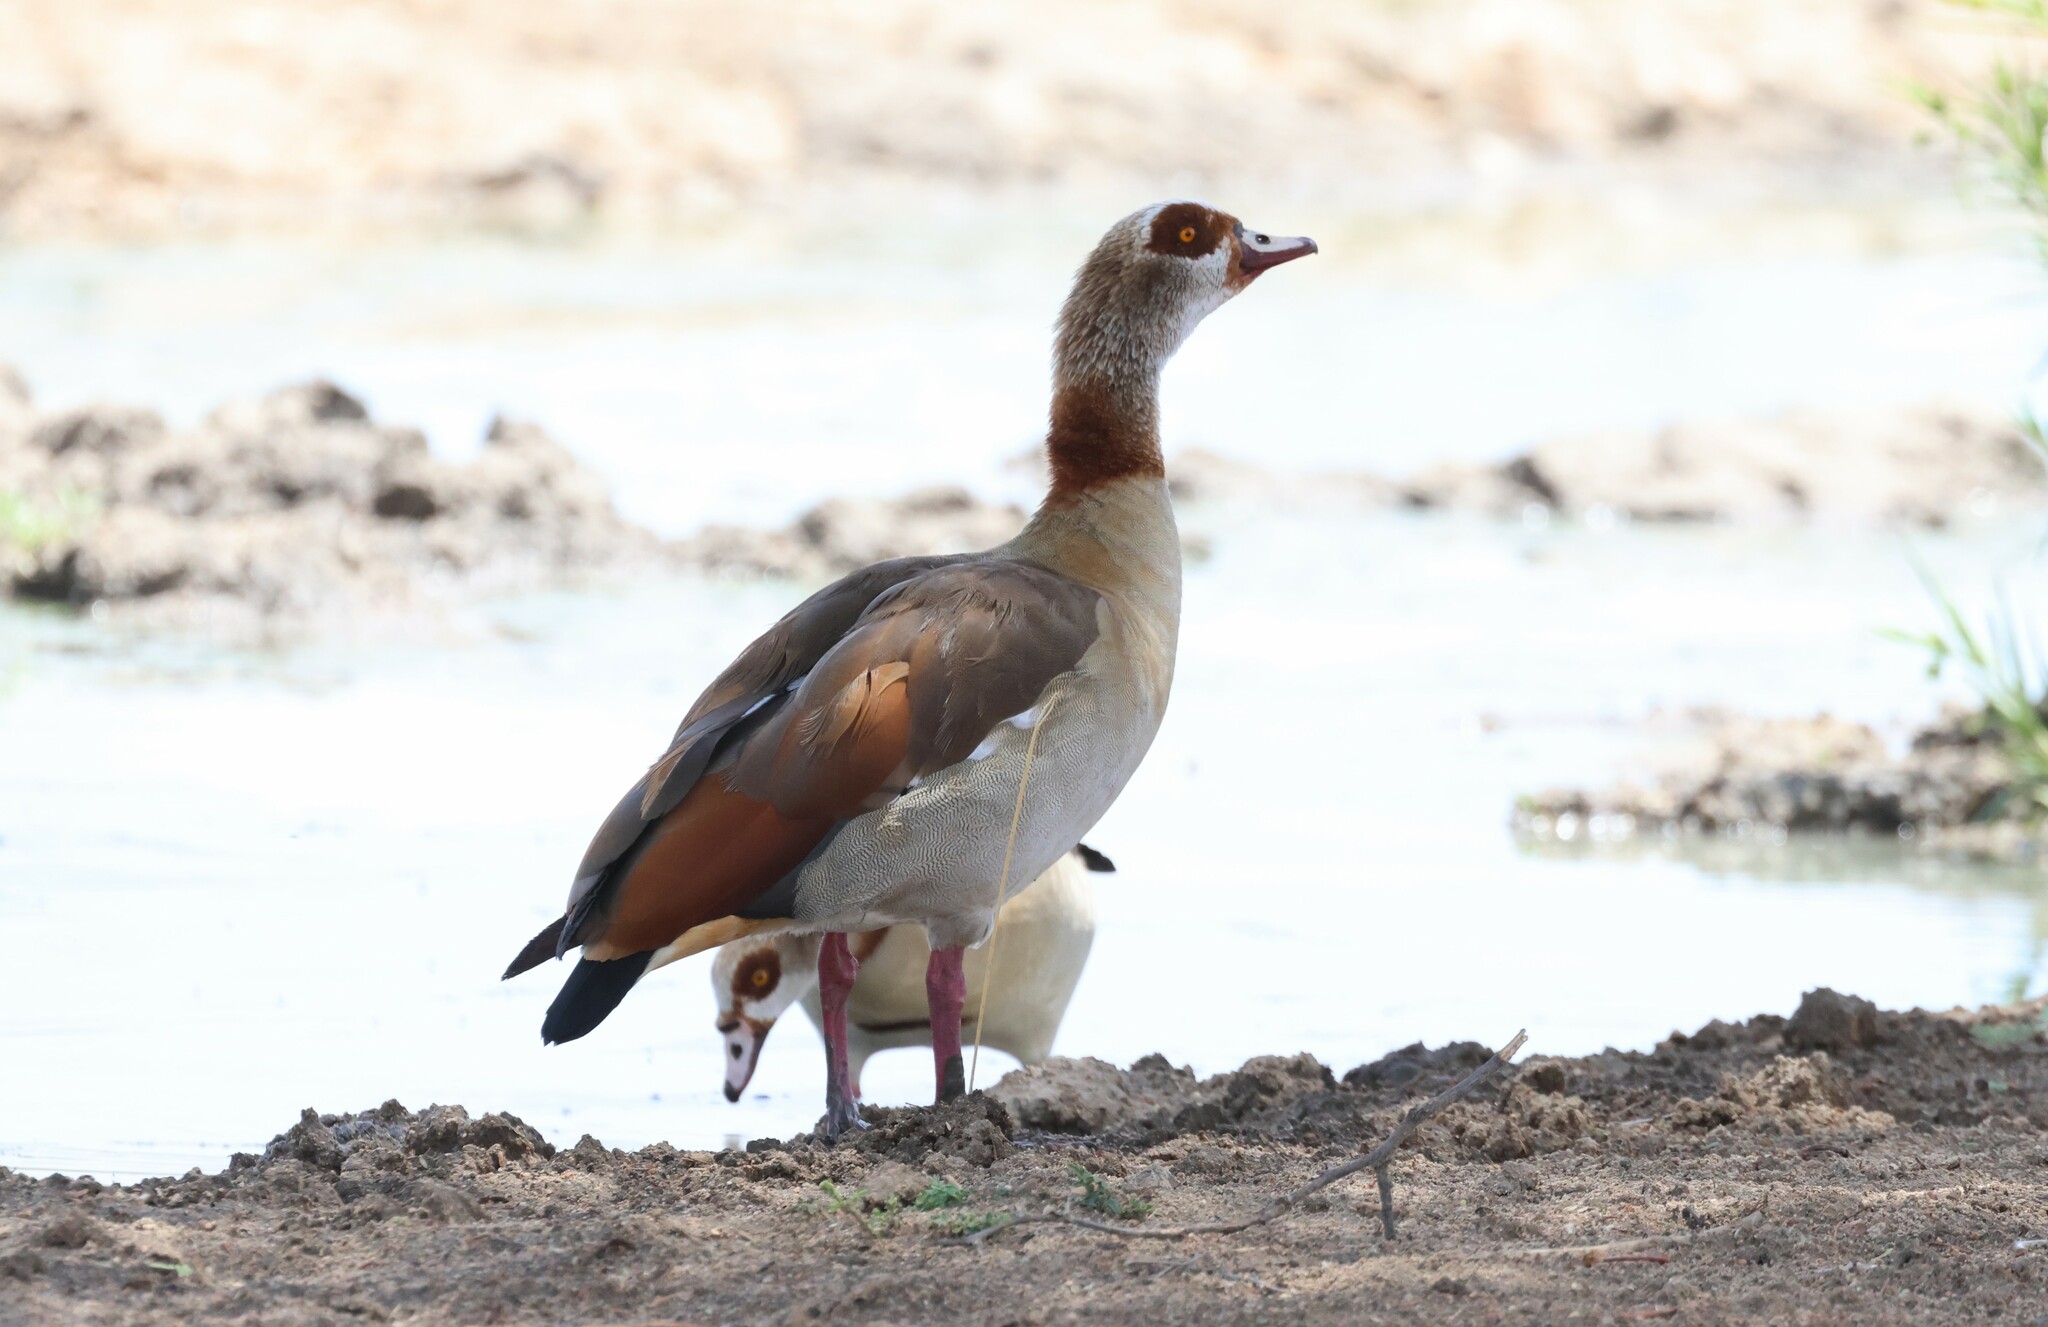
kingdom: Animalia
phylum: Chordata
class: Aves
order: Anseriformes
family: Anatidae
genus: Alopochen
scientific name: Alopochen aegyptiaca
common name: Egyptian goose
